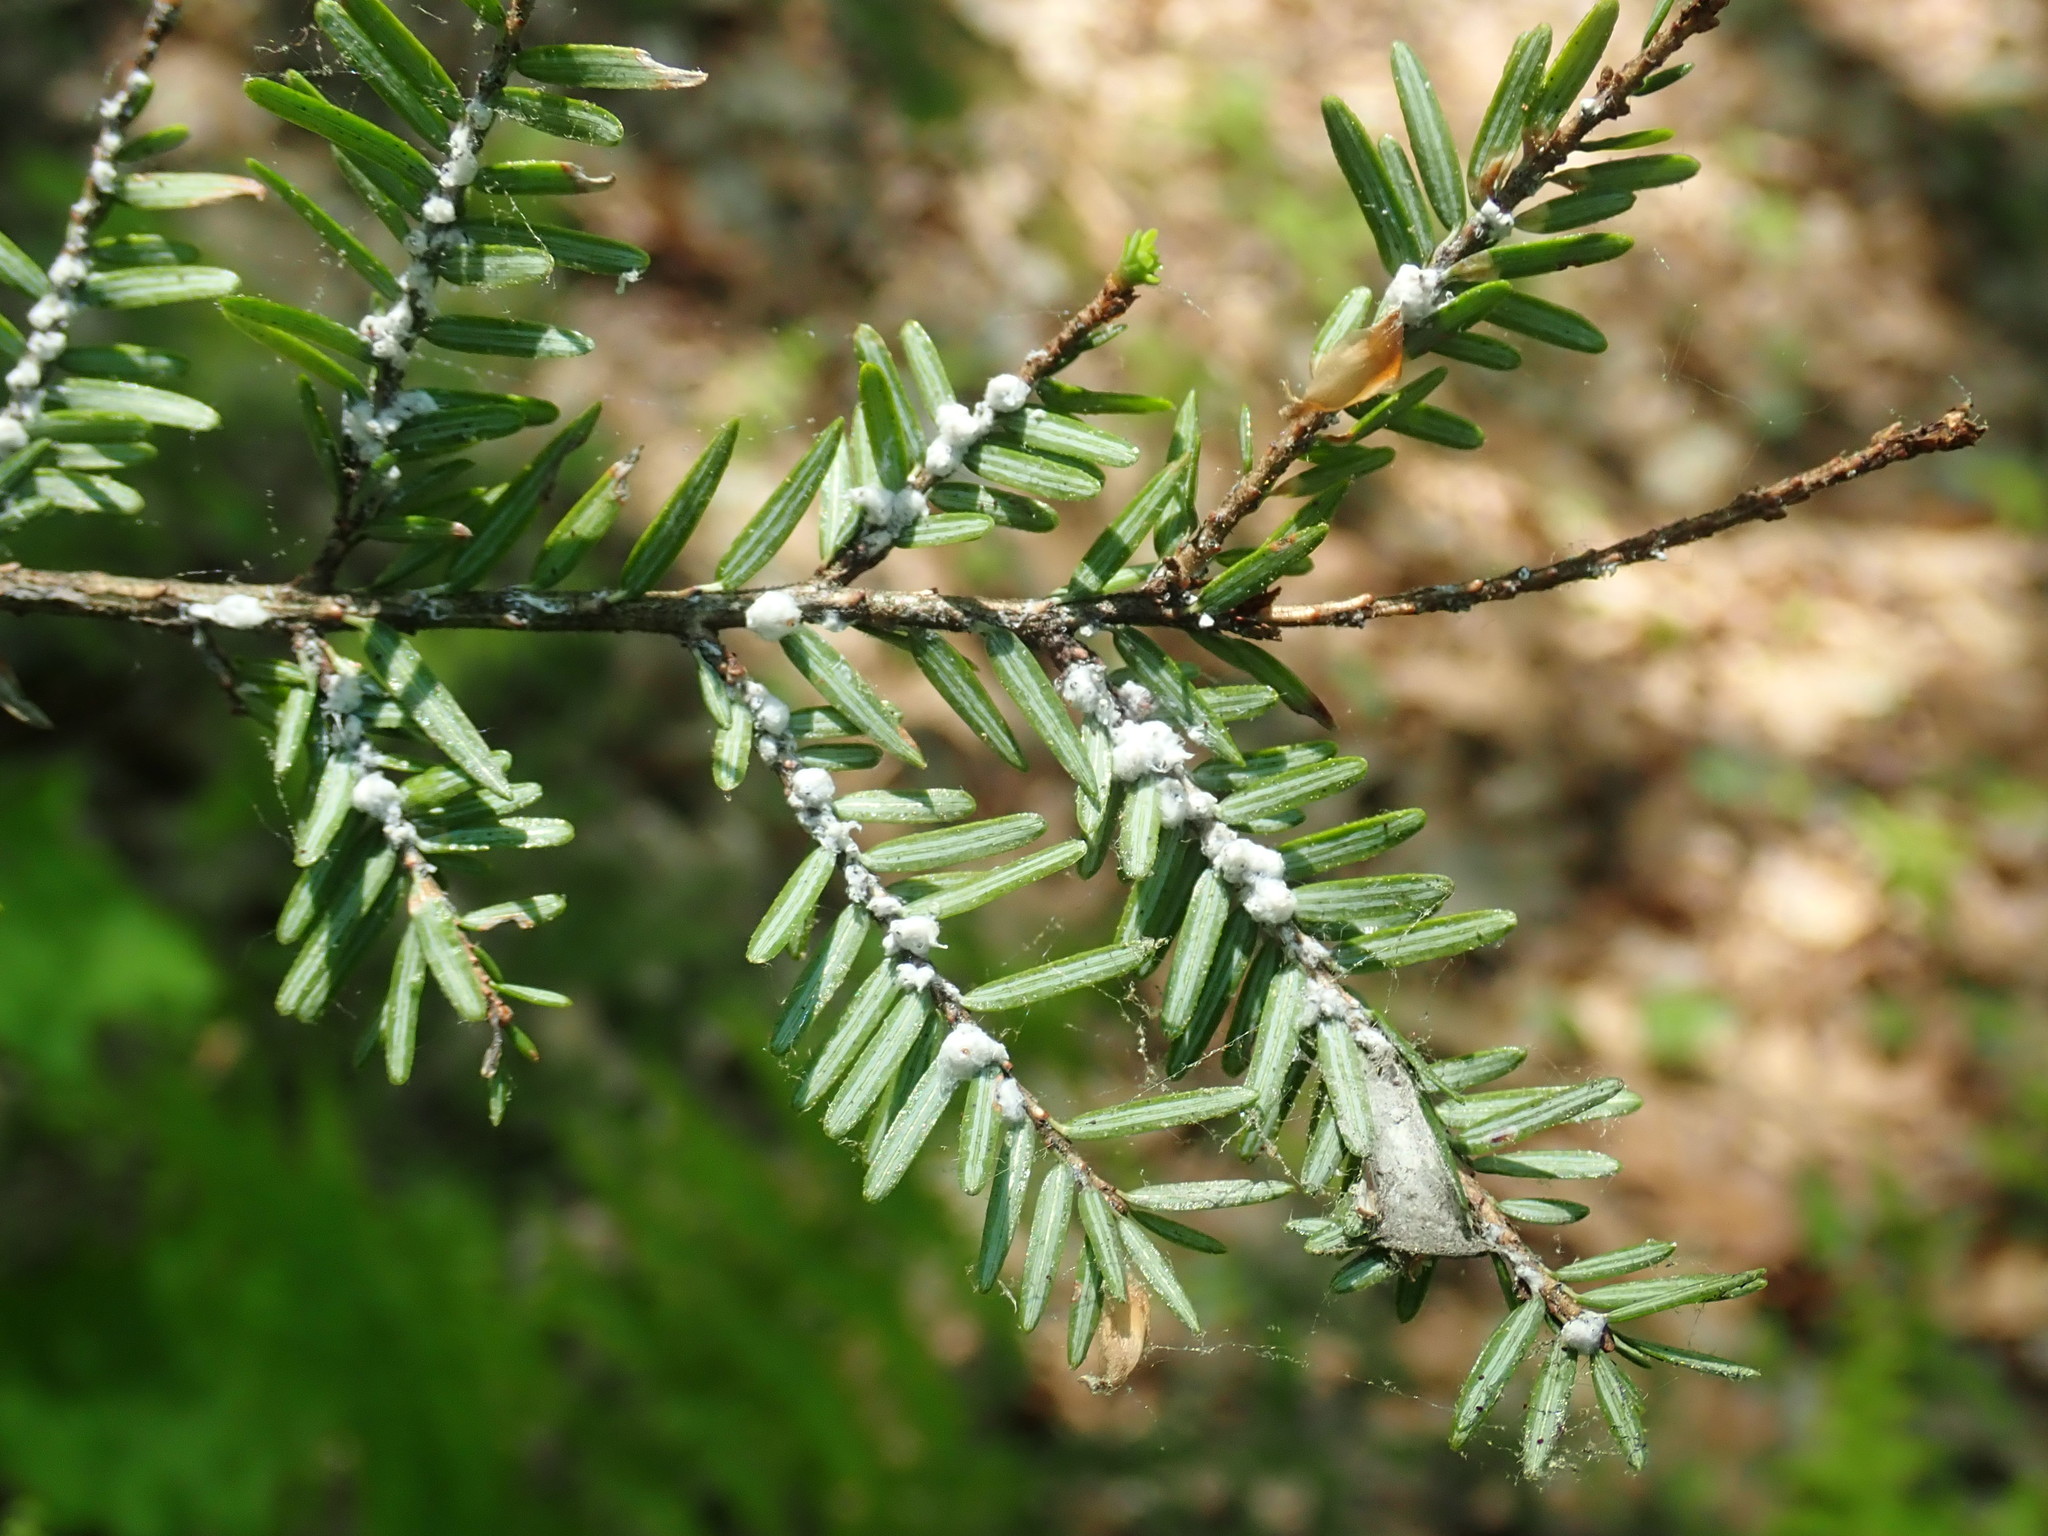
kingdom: Animalia
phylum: Arthropoda
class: Insecta
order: Hemiptera
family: Adelgidae
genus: Adelges
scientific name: Adelges tsugae
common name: Hemlock woolly adelgid
